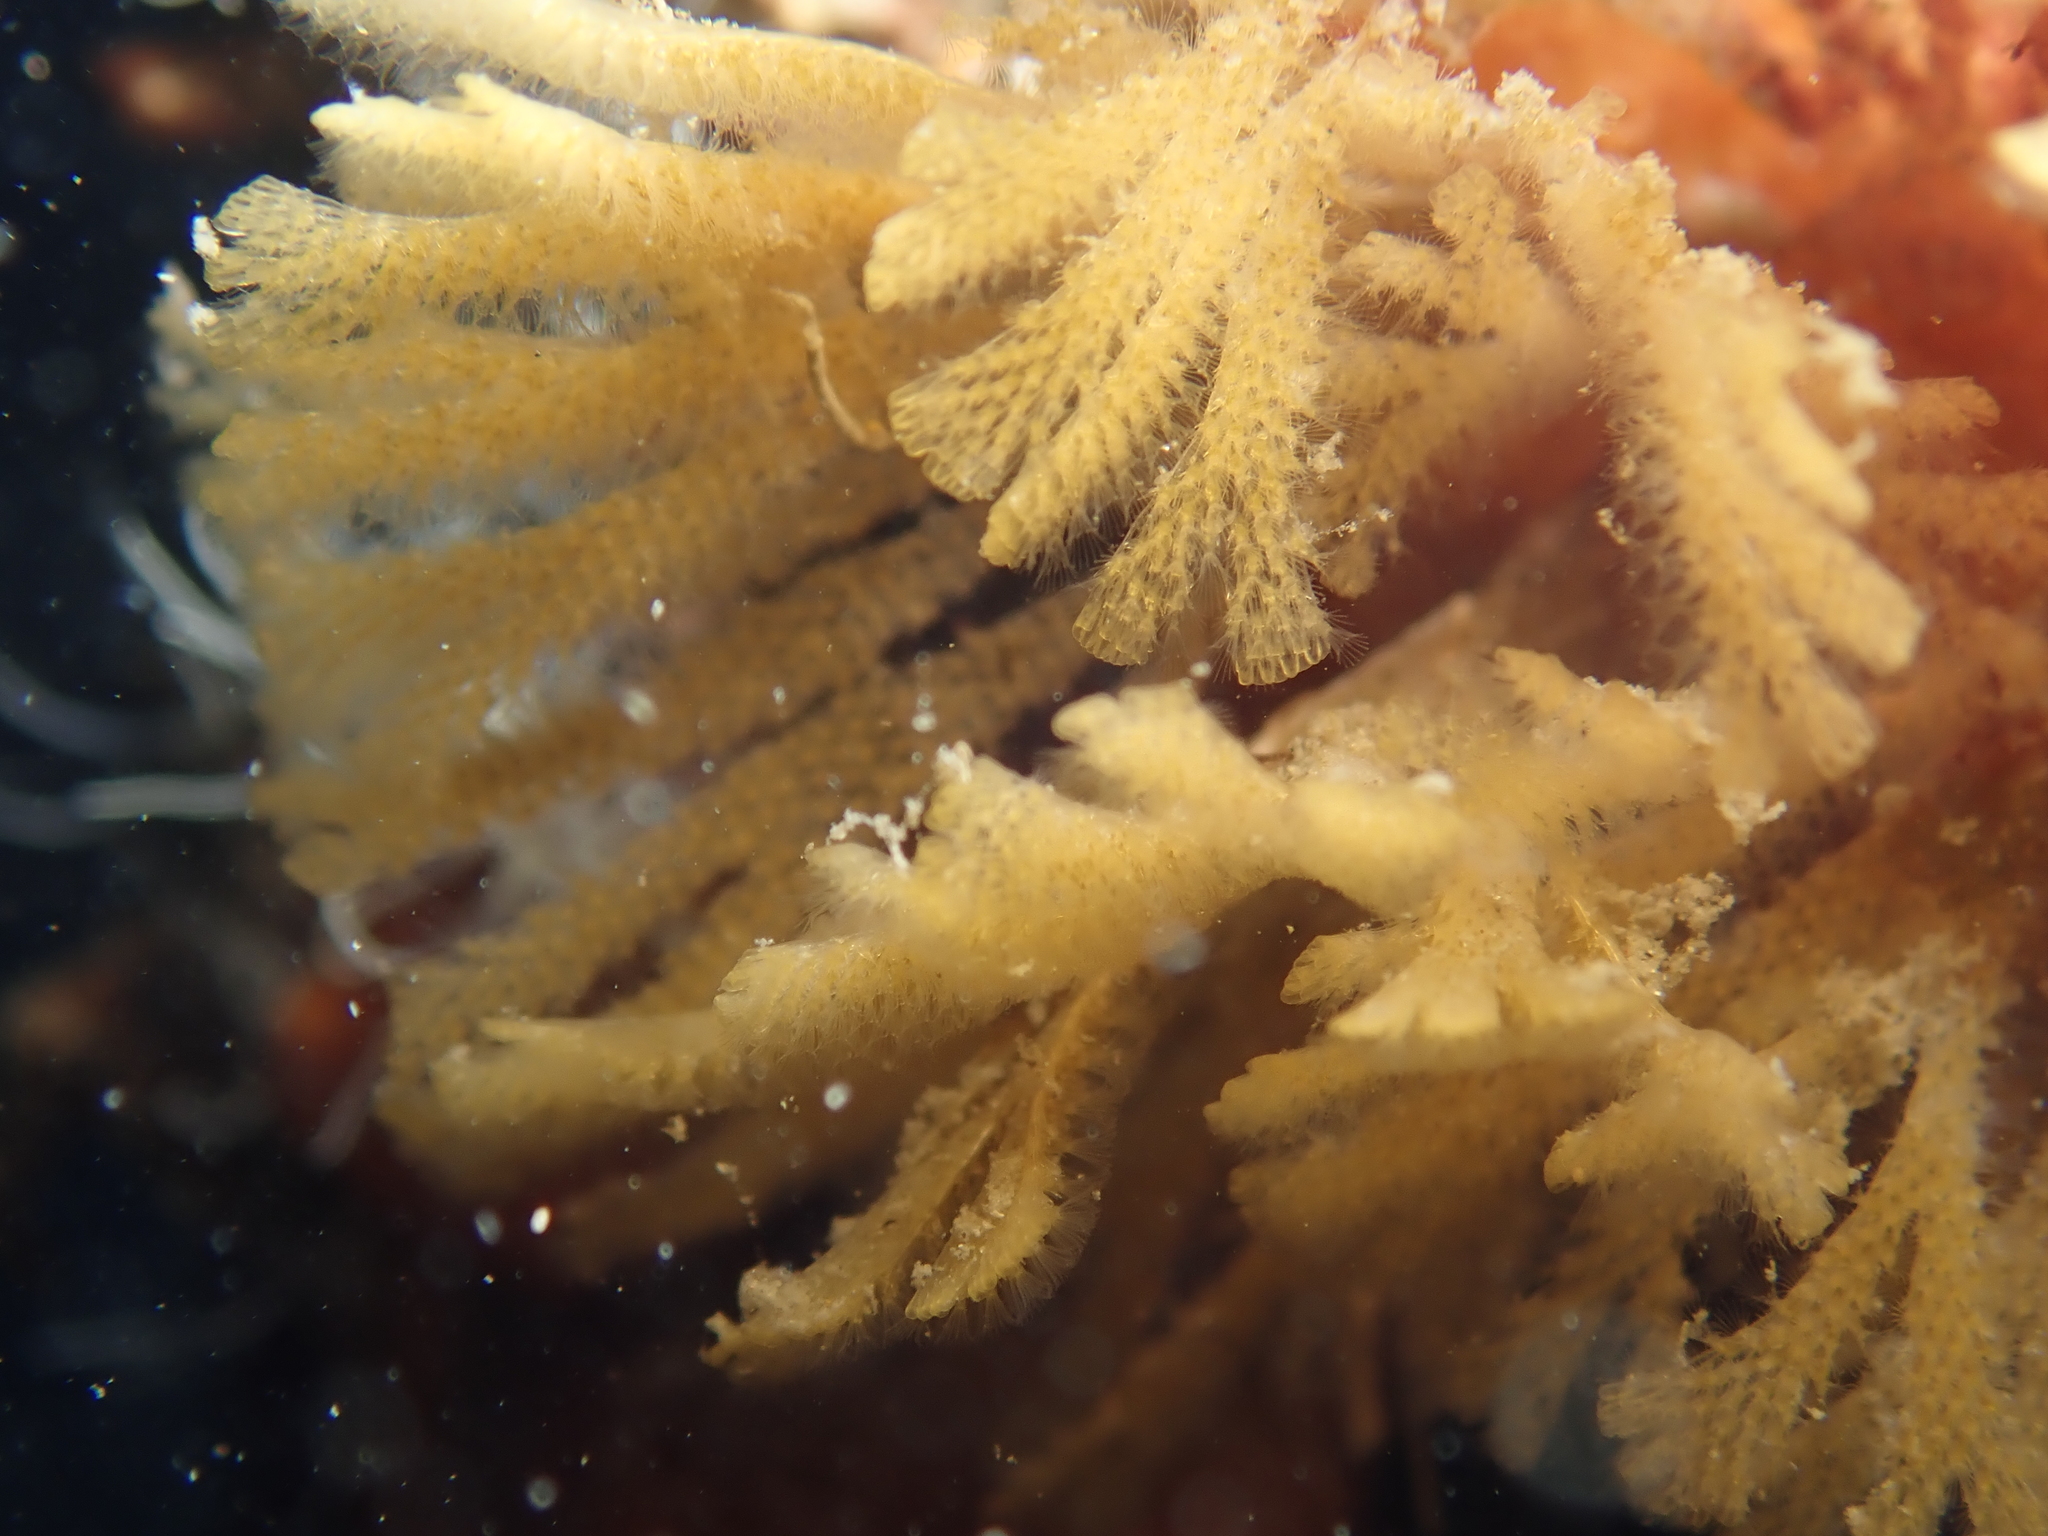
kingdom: Animalia
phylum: Bryozoa
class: Gymnolaemata
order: Cheilostomatida
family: Bugulidae
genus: Bugulina
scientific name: Bugulina calathus
